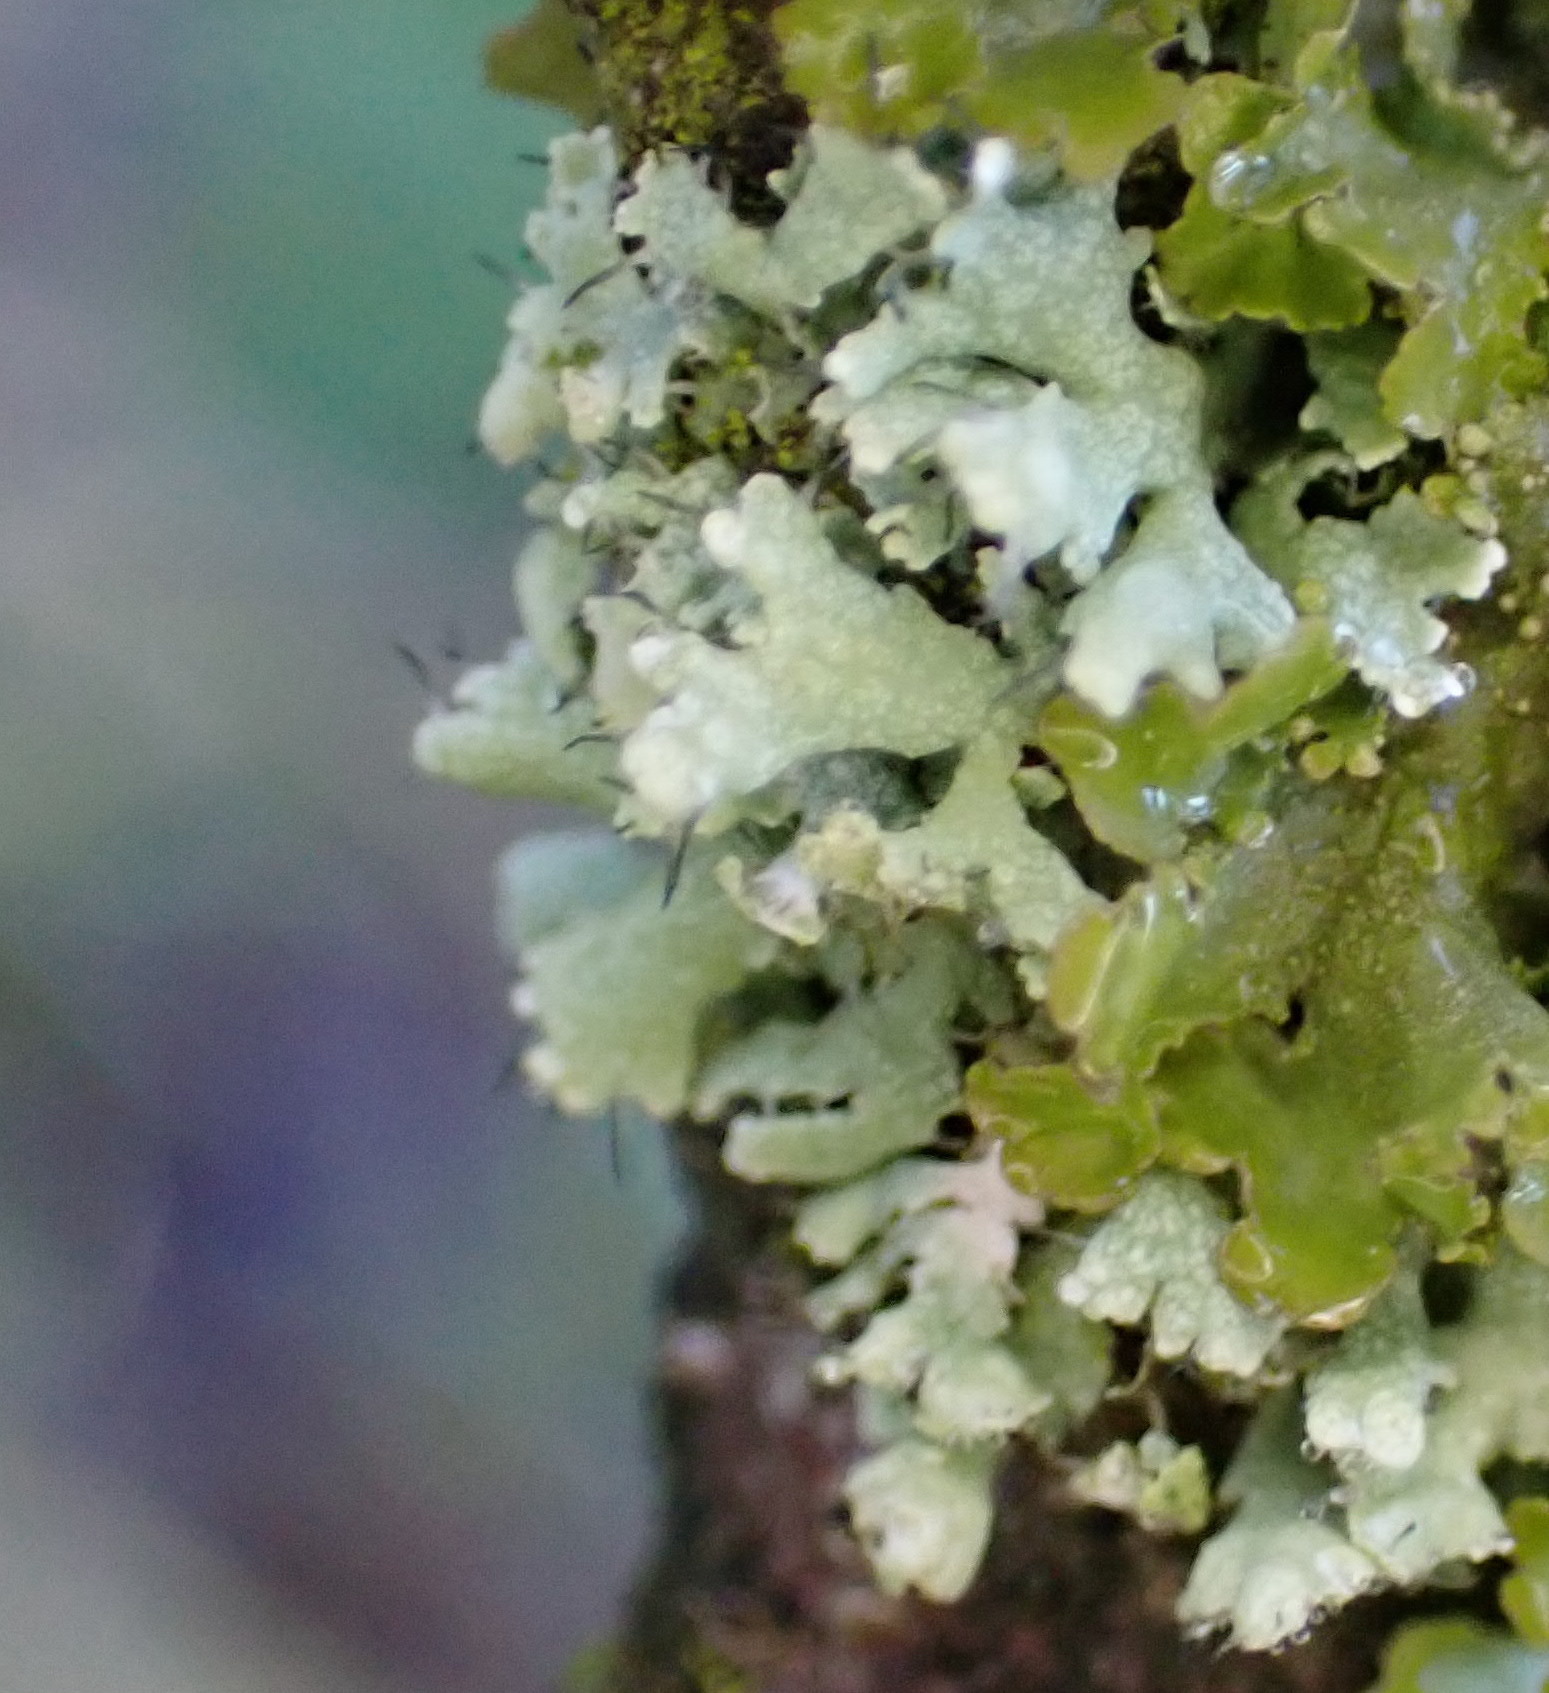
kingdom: Fungi
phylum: Ascomycota
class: Lecanoromycetes
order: Caliciales
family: Physciaceae
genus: Physcia
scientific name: Physcia adscendens
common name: Hooded rosette lichen
